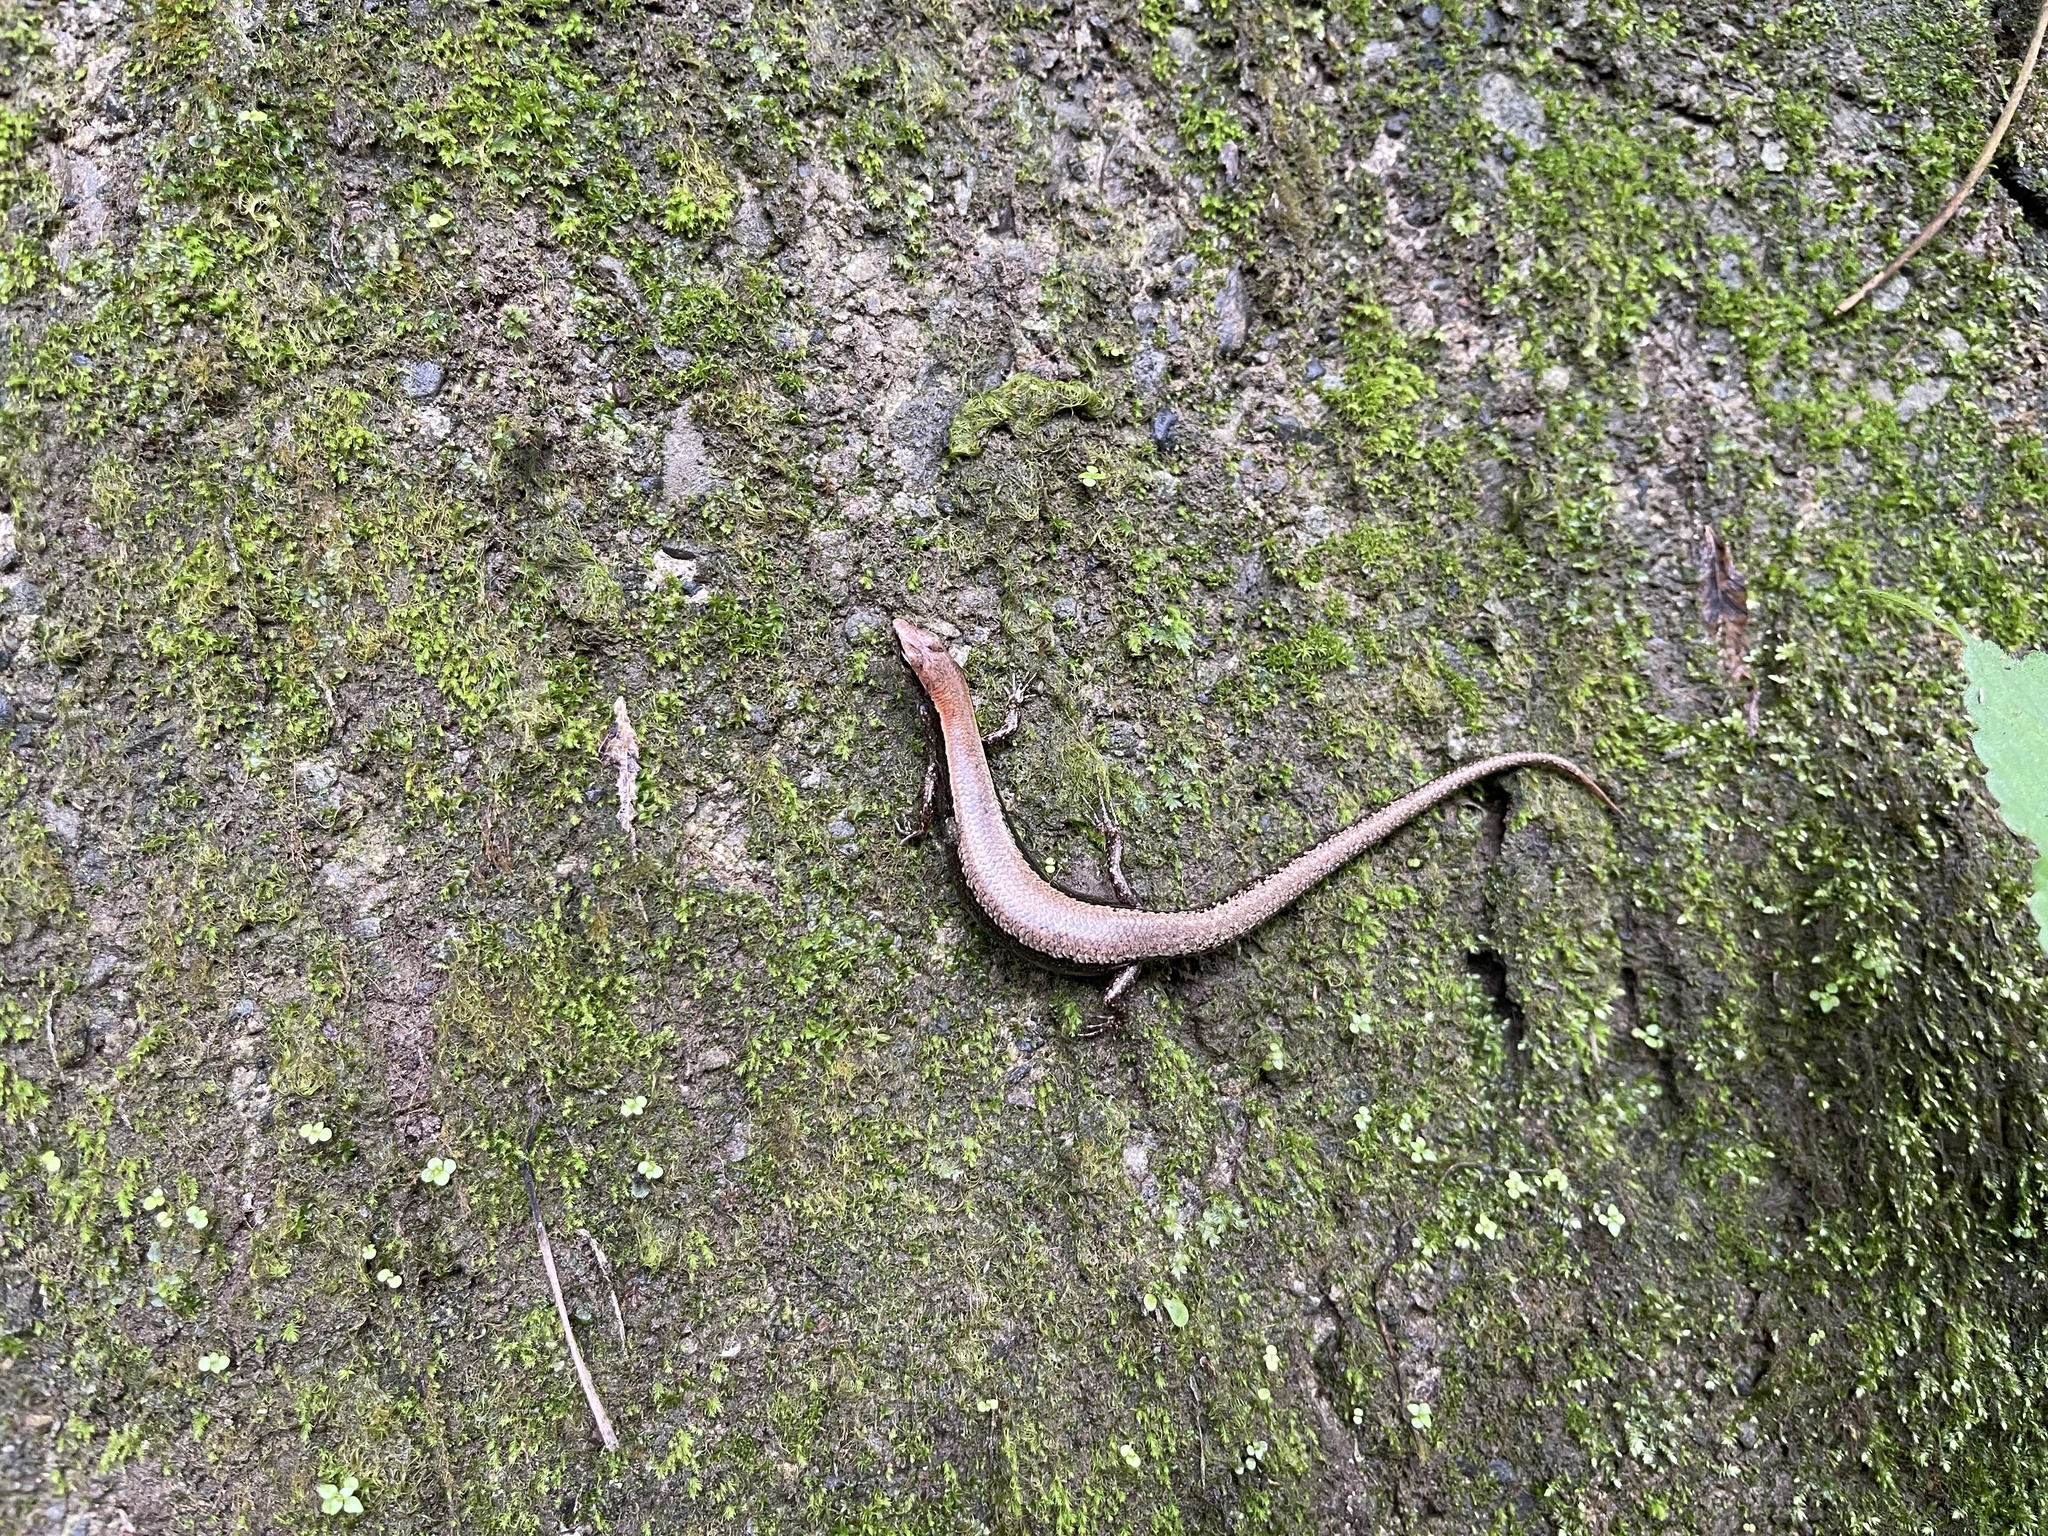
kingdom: Animalia
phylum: Chordata
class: Squamata
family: Scincidae
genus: Sphenomorphus
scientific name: Sphenomorphus indicus
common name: Himalayan forest skink
